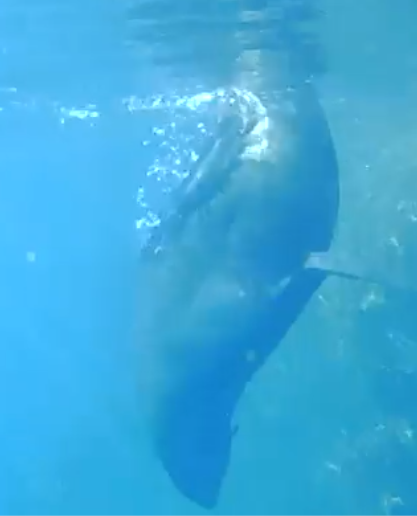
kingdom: Animalia
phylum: Chordata
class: Mammalia
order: Carnivora
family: Otariidae
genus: Arctocephalus
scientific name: Arctocephalus forsteri
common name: New zealand fur seal
